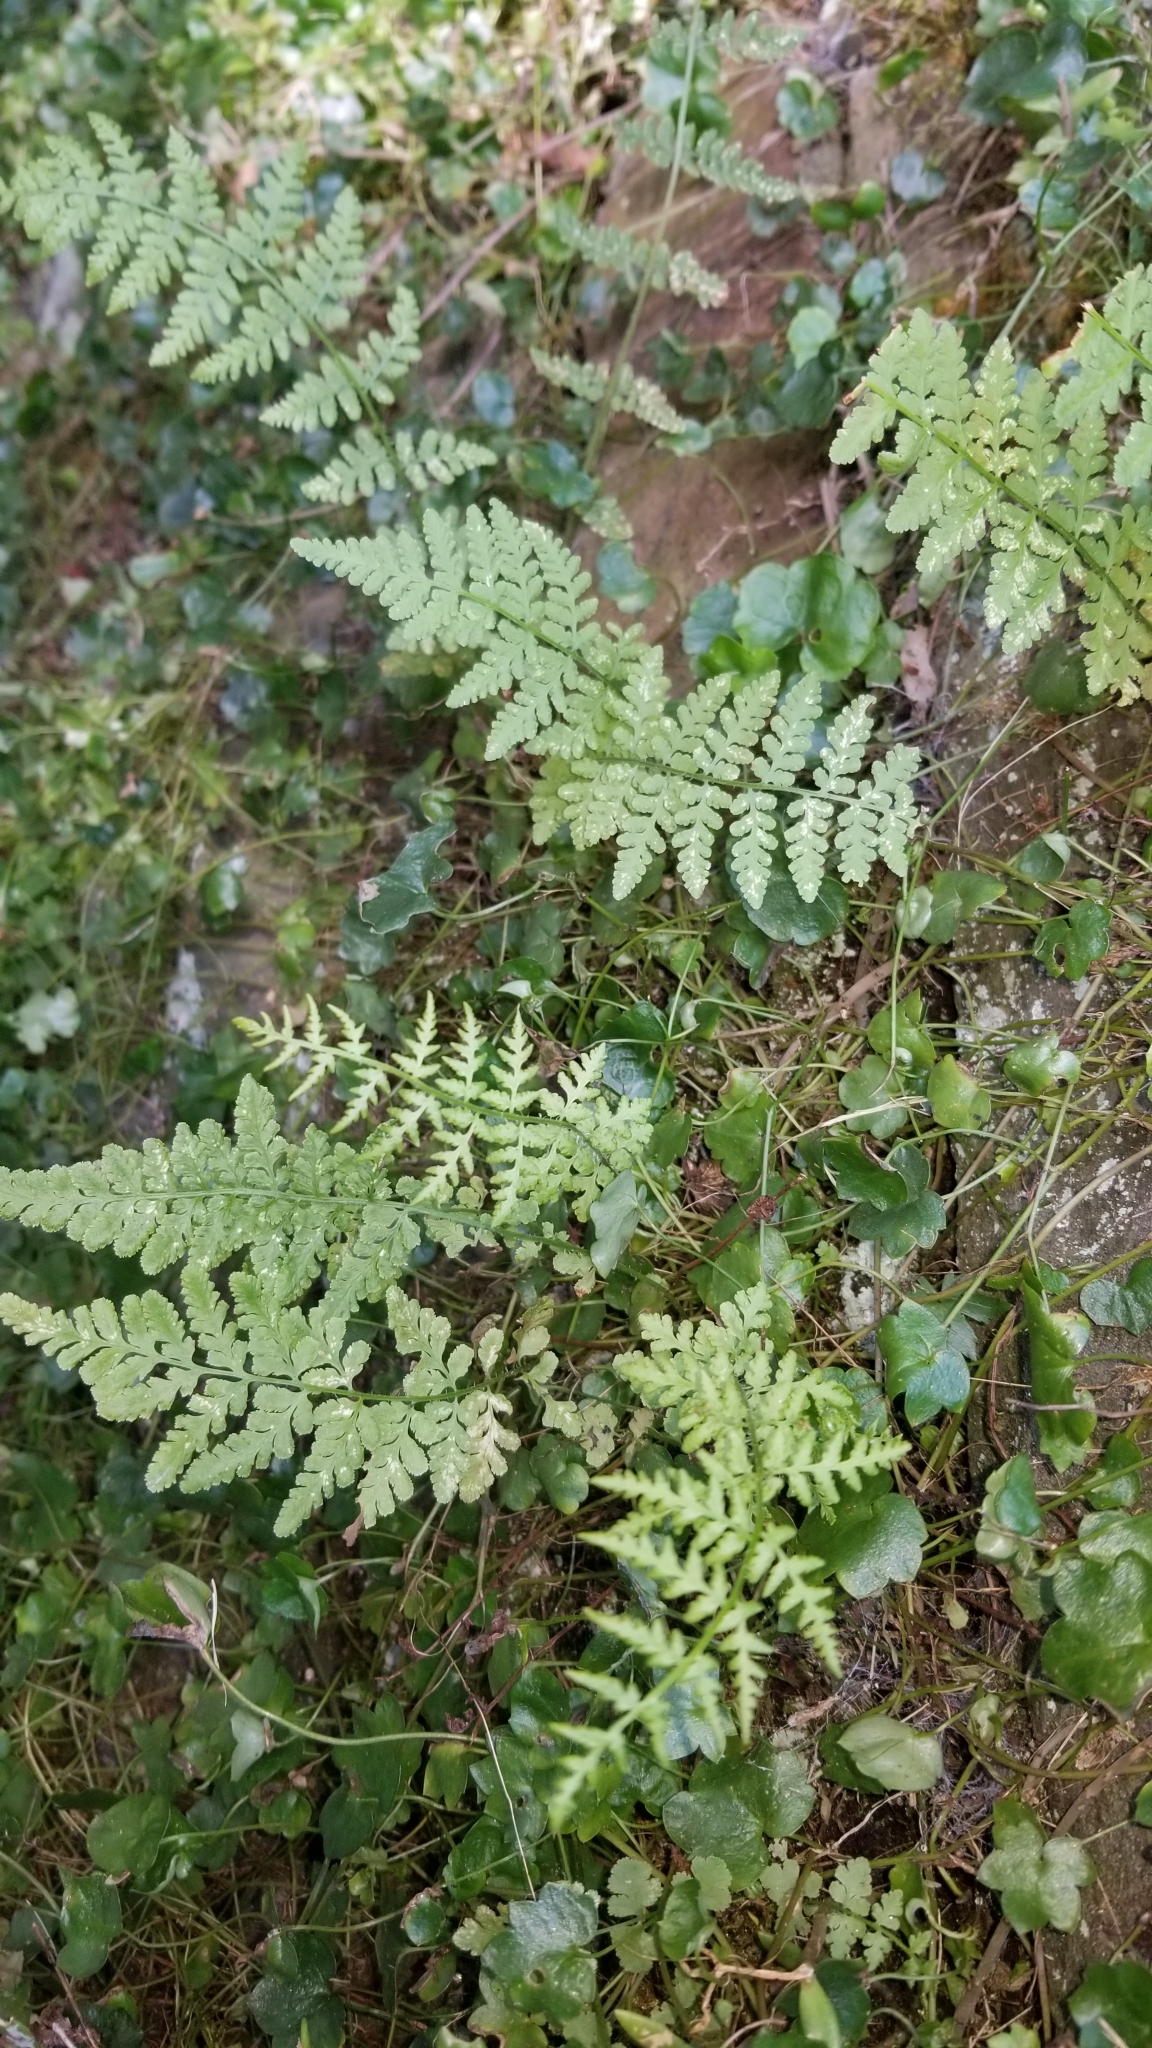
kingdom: Plantae
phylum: Tracheophyta
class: Polypodiopsida
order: Polypodiales
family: Woodsiaceae
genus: Physematium
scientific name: Physematium obtusum
